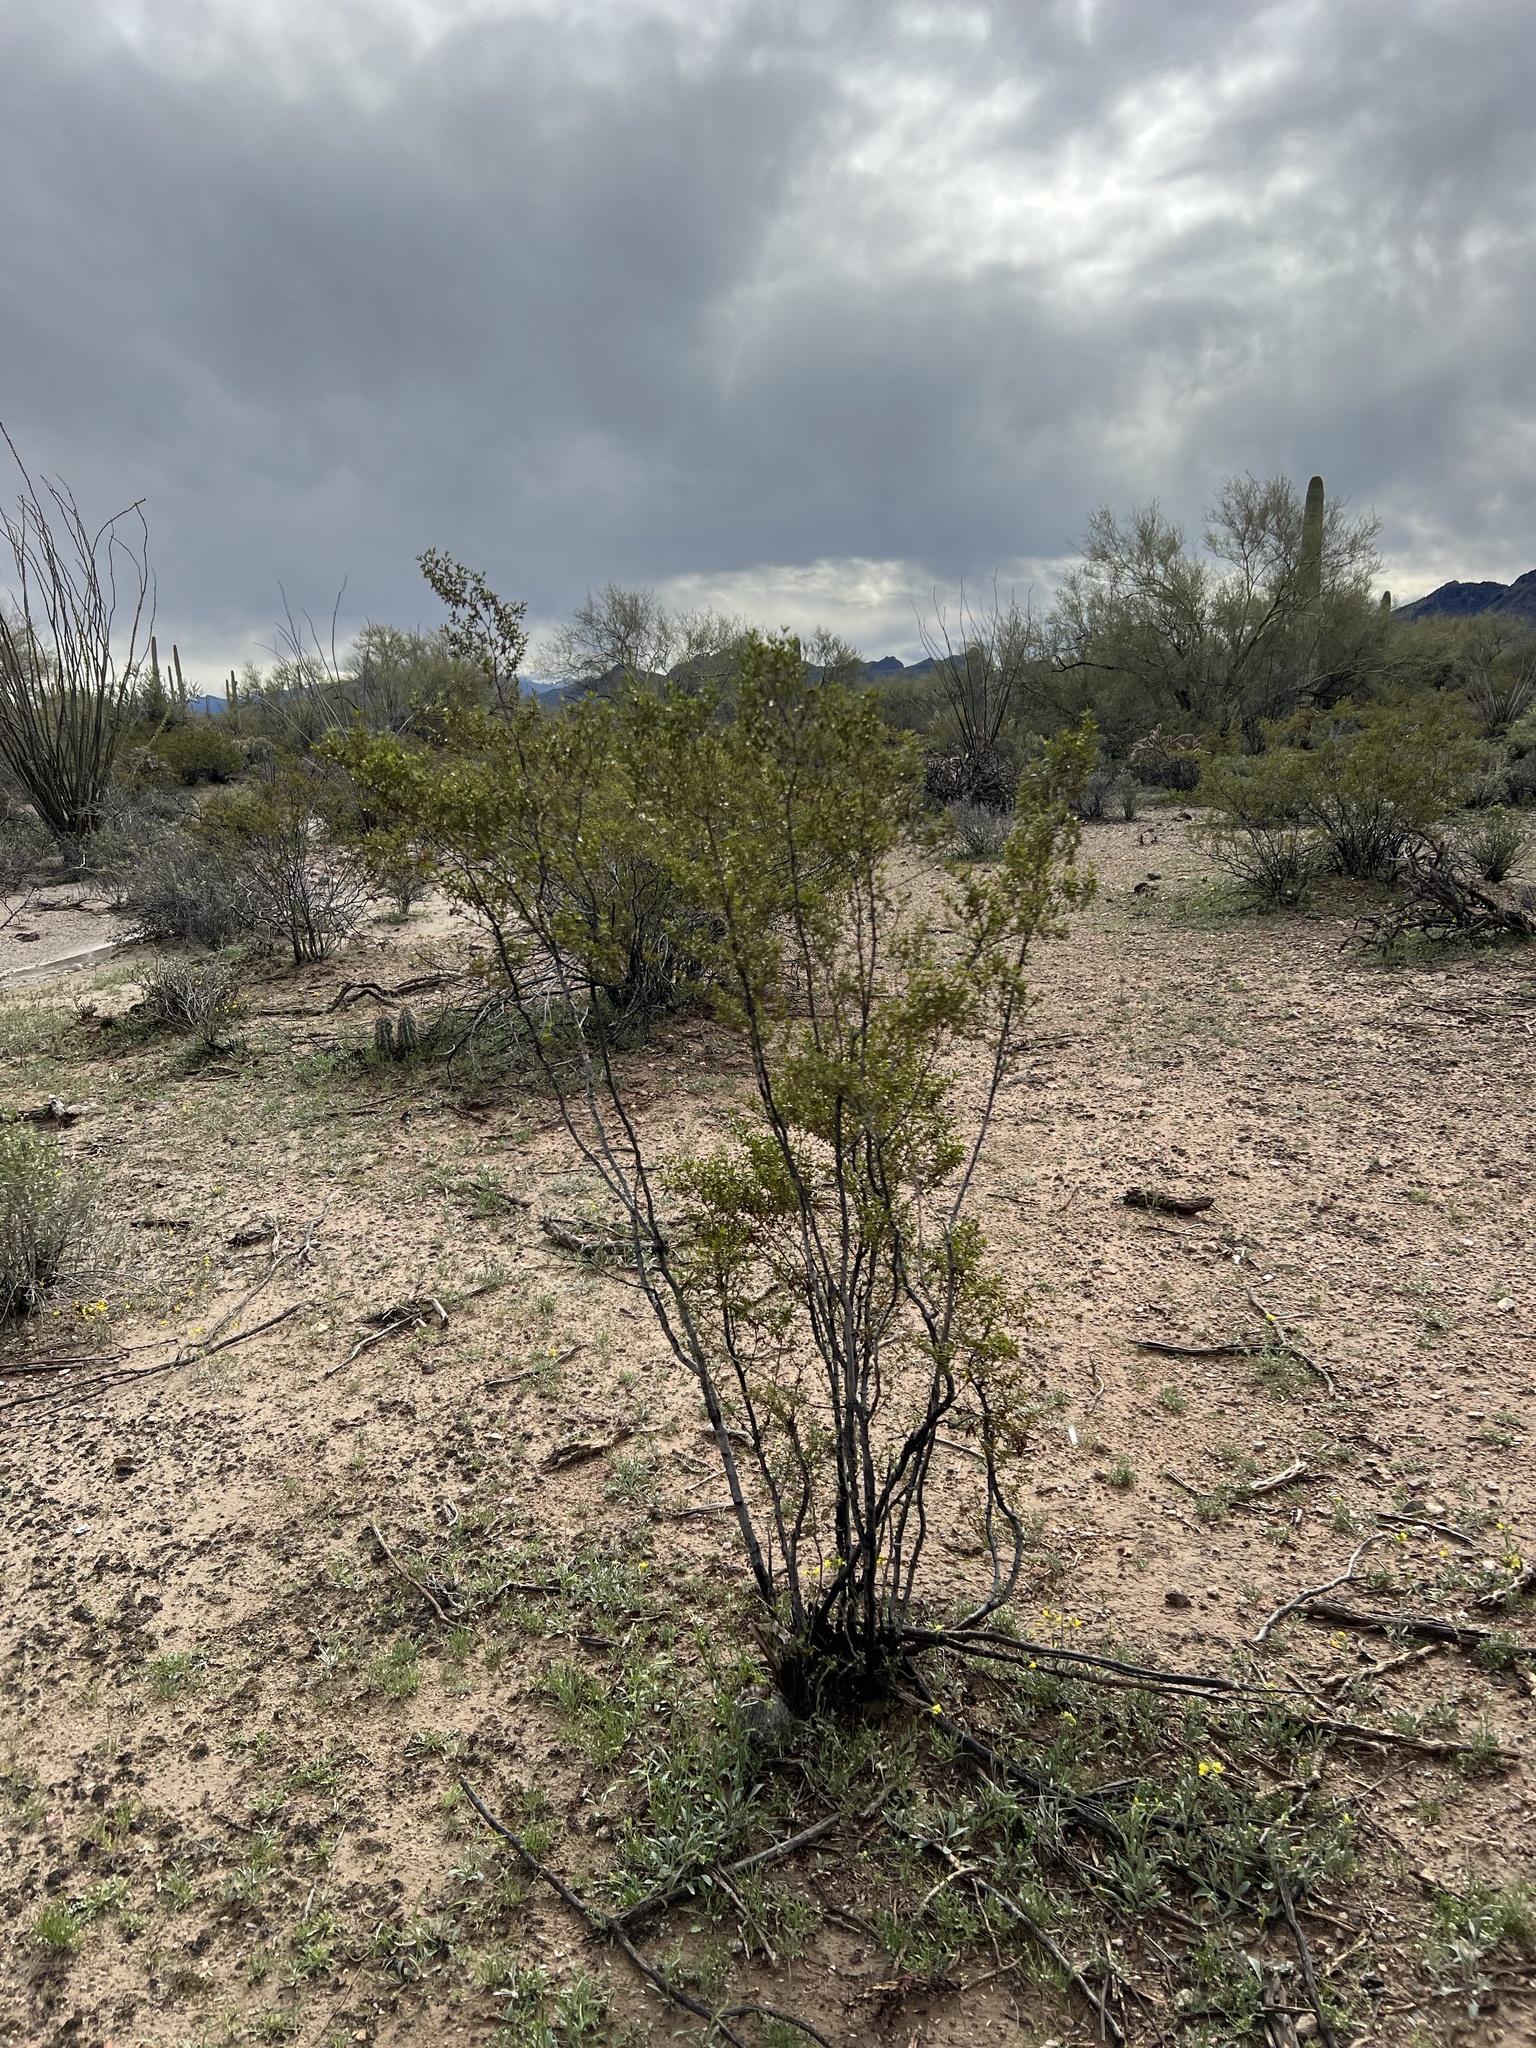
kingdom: Plantae
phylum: Tracheophyta
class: Magnoliopsida
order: Zygophyllales
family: Zygophyllaceae
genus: Larrea
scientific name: Larrea tridentata
